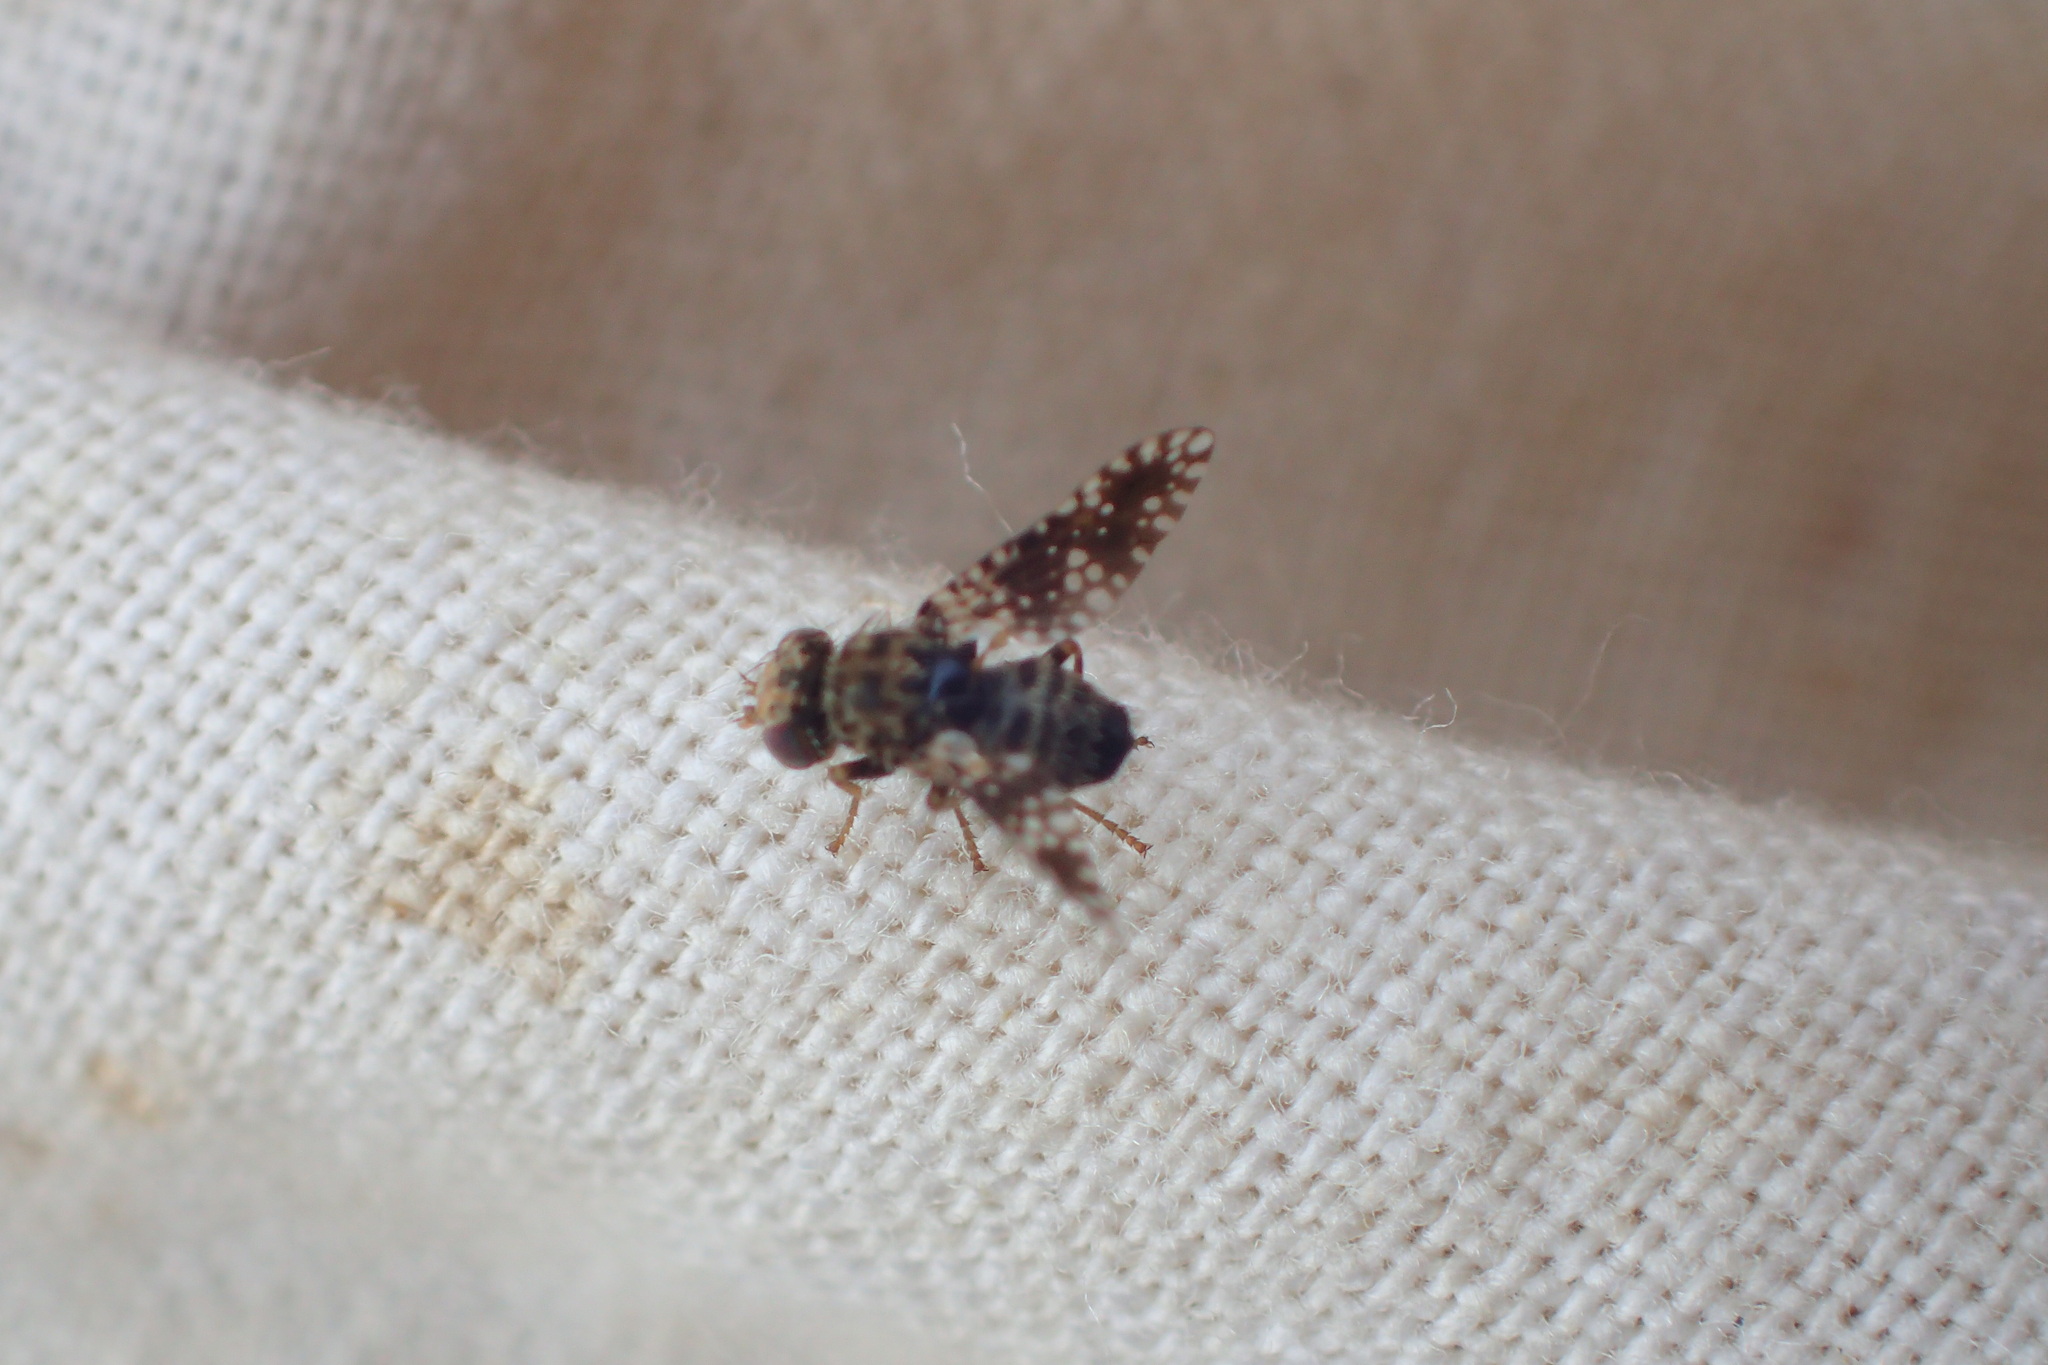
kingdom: Animalia
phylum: Arthropoda
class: Insecta
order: Diptera
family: Tephritidae
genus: Dithryca
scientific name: Dithryca guttularis
